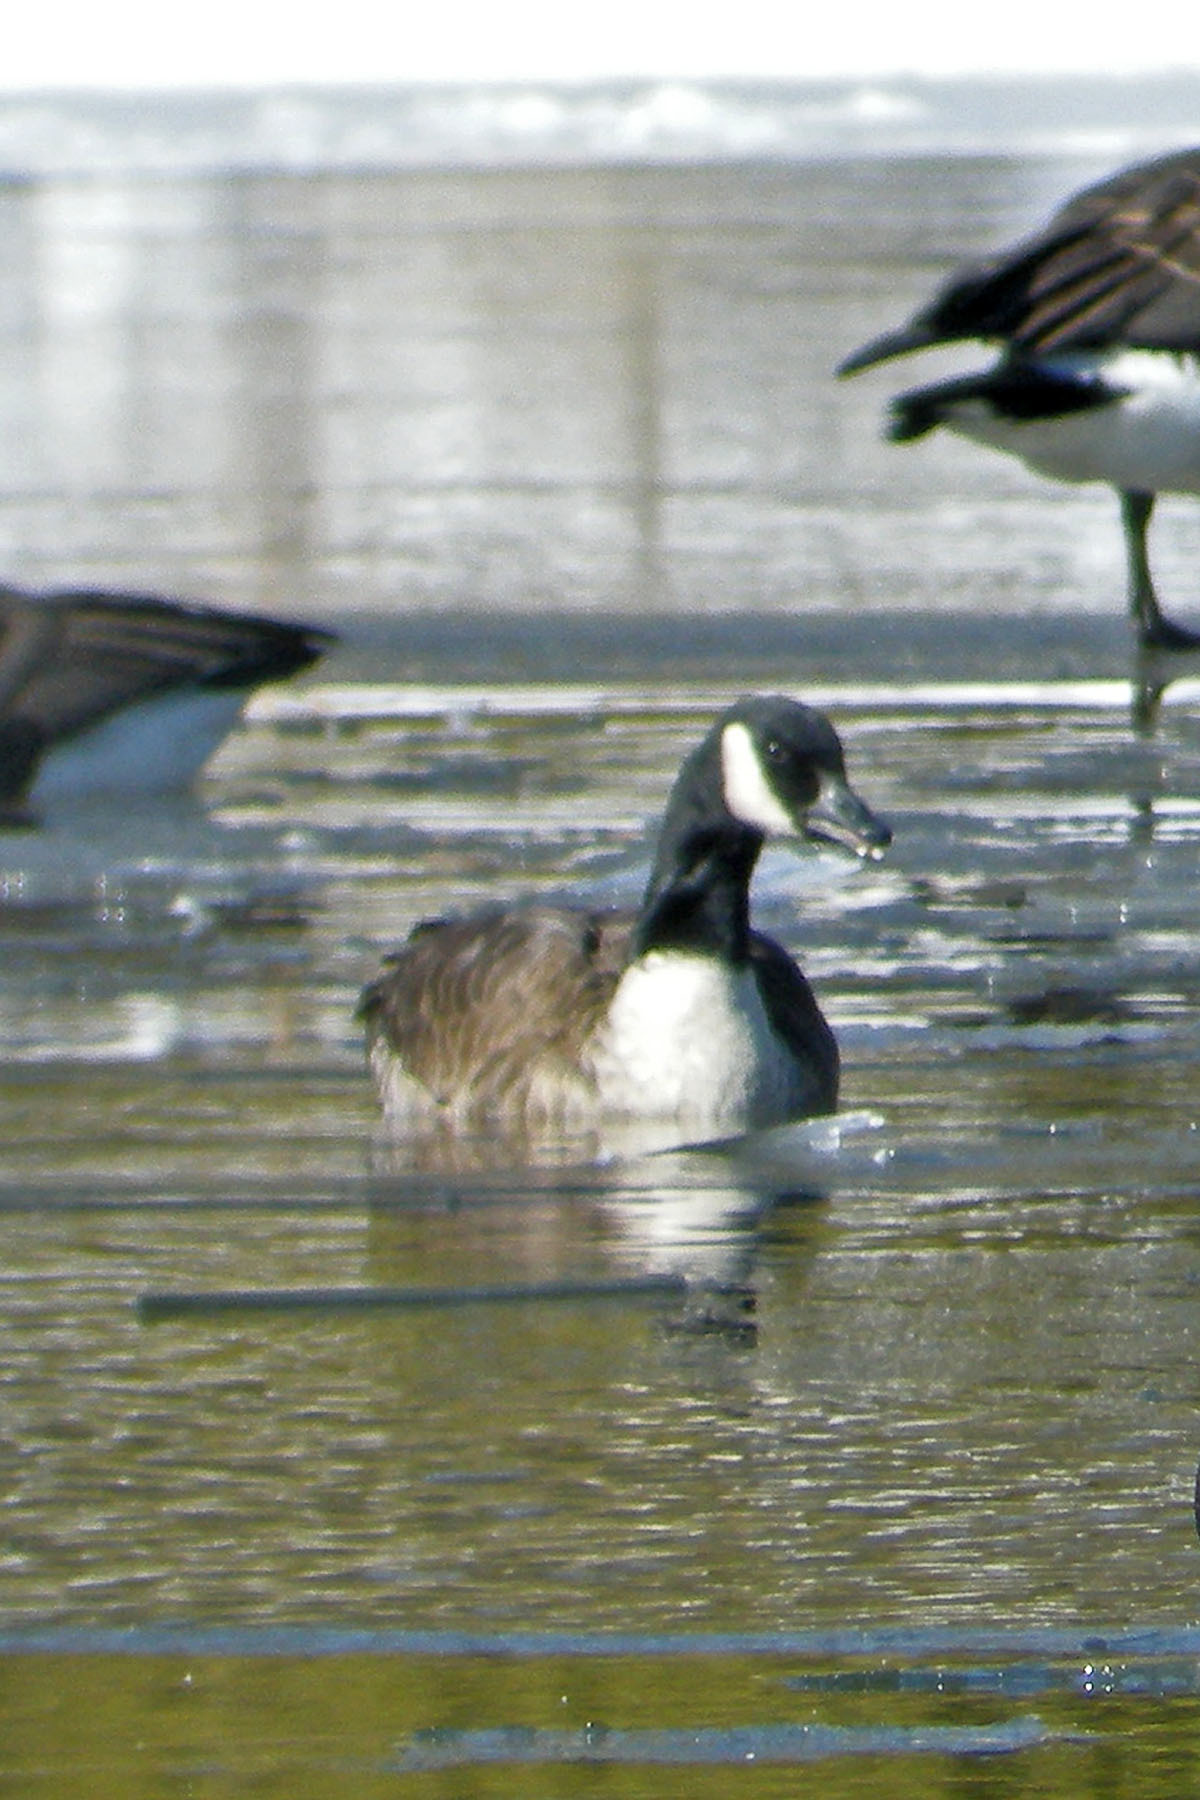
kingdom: Animalia
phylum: Chordata
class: Aves
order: Anseriformes
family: Anatidae
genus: Branta
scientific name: Branta canadensis
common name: Canada goose
